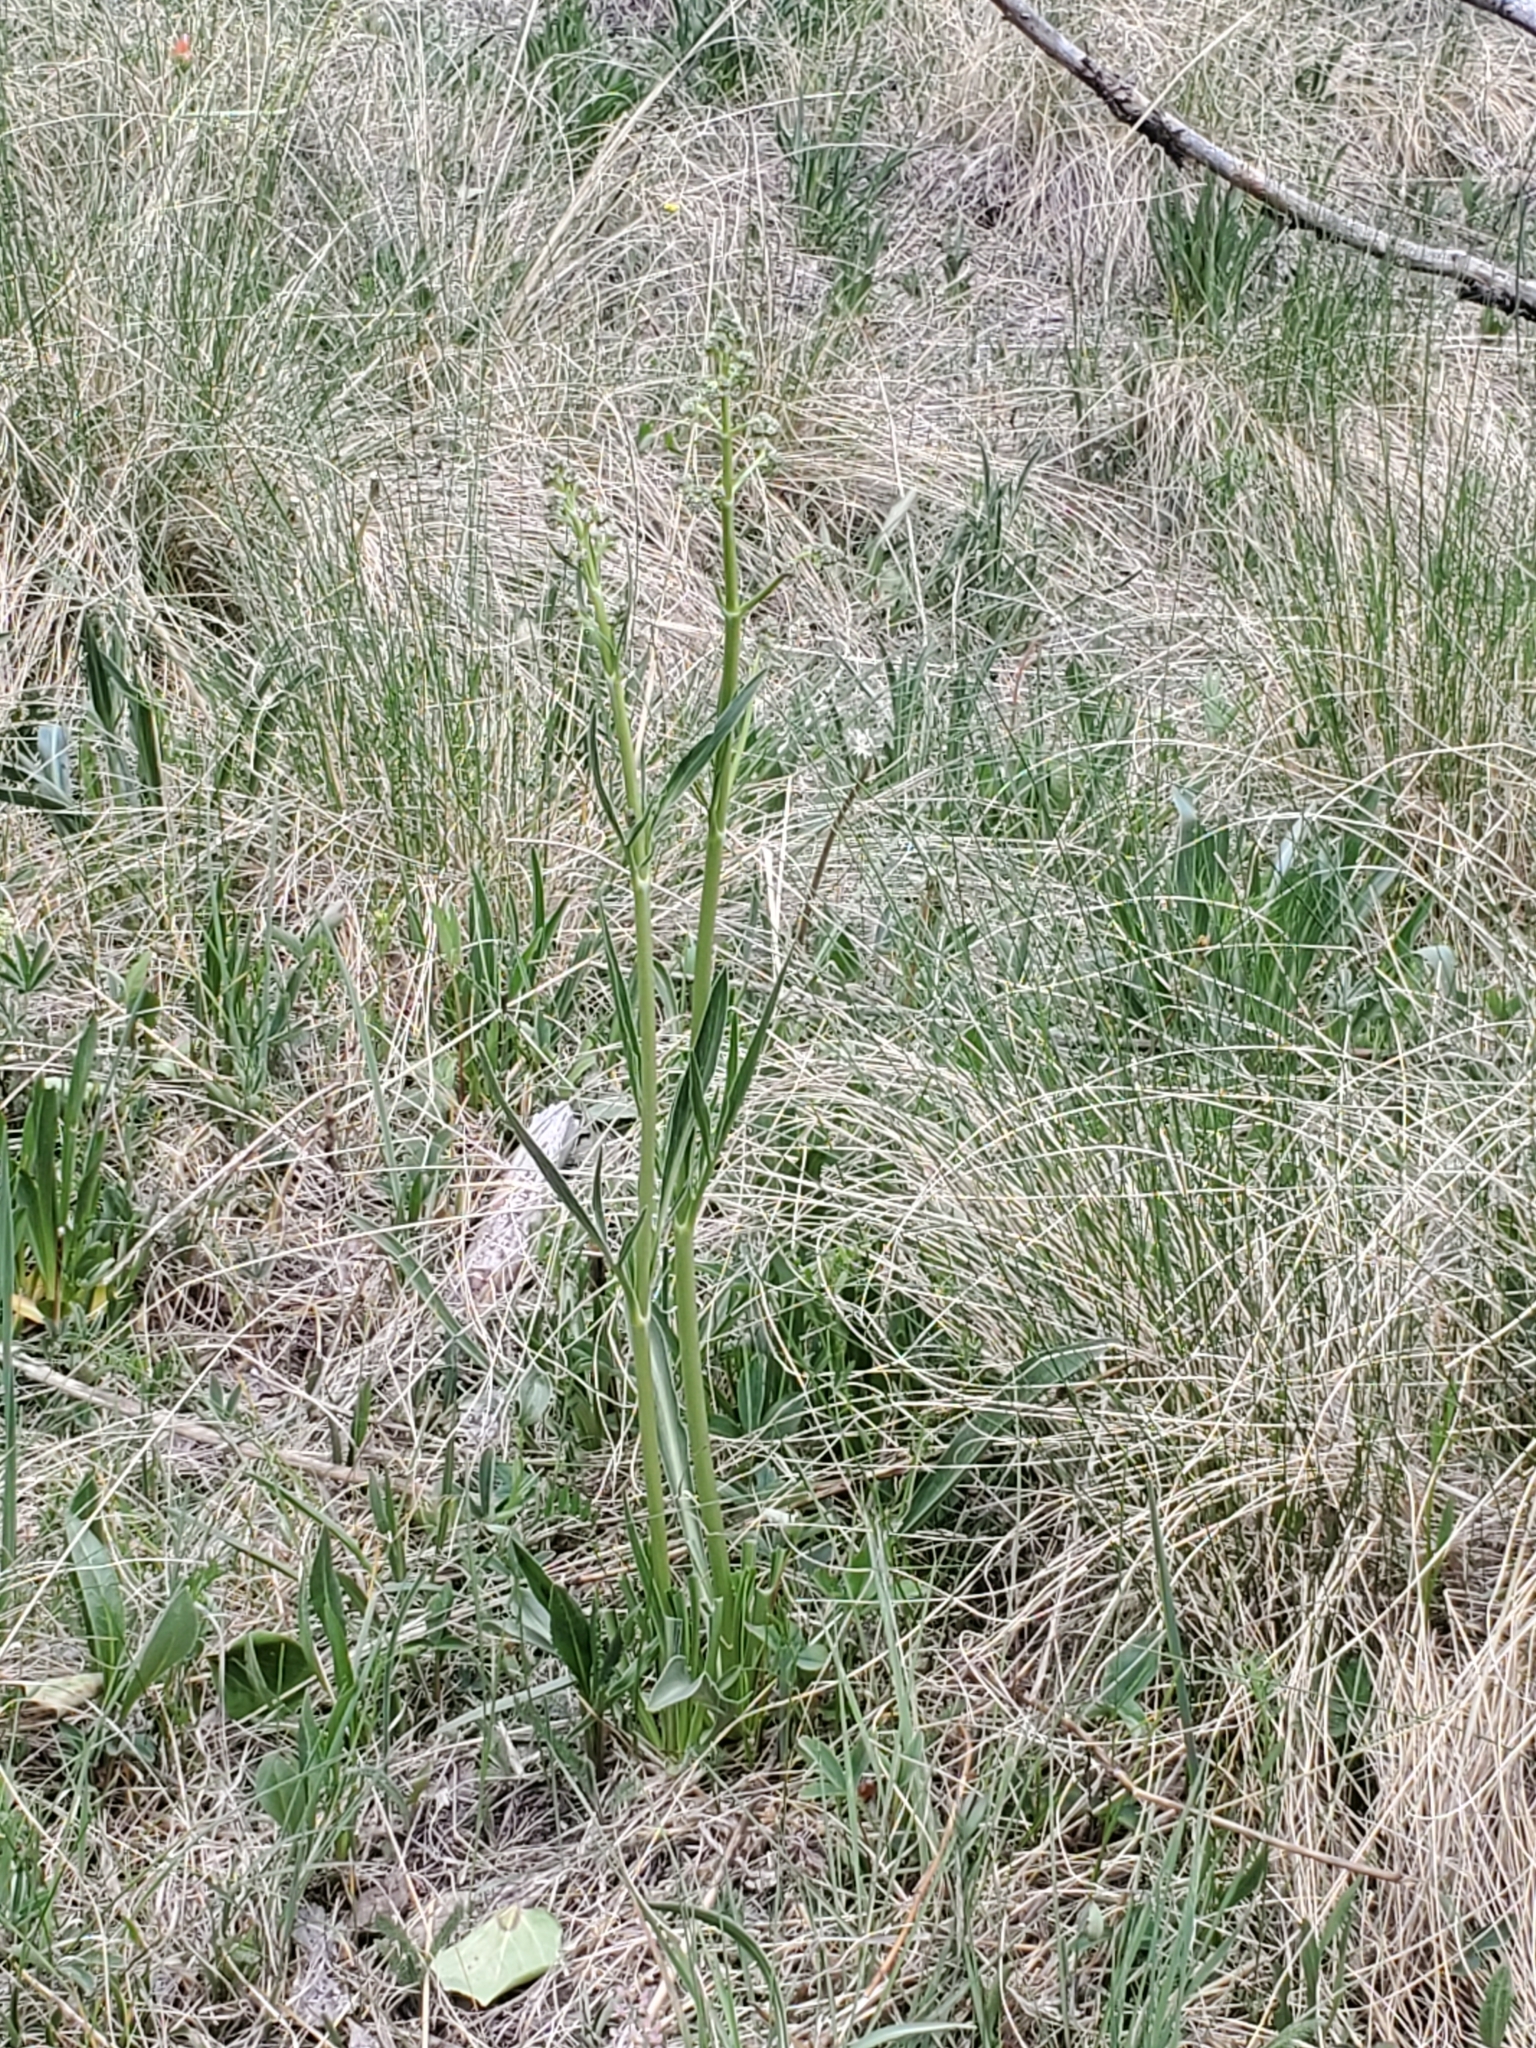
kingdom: Plantae
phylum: Tracheophyta
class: Magnoliopsida
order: Dipsacales
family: Caprifoliaceae
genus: Valeriana
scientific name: Valeriana edulis
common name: Taproot valerian
